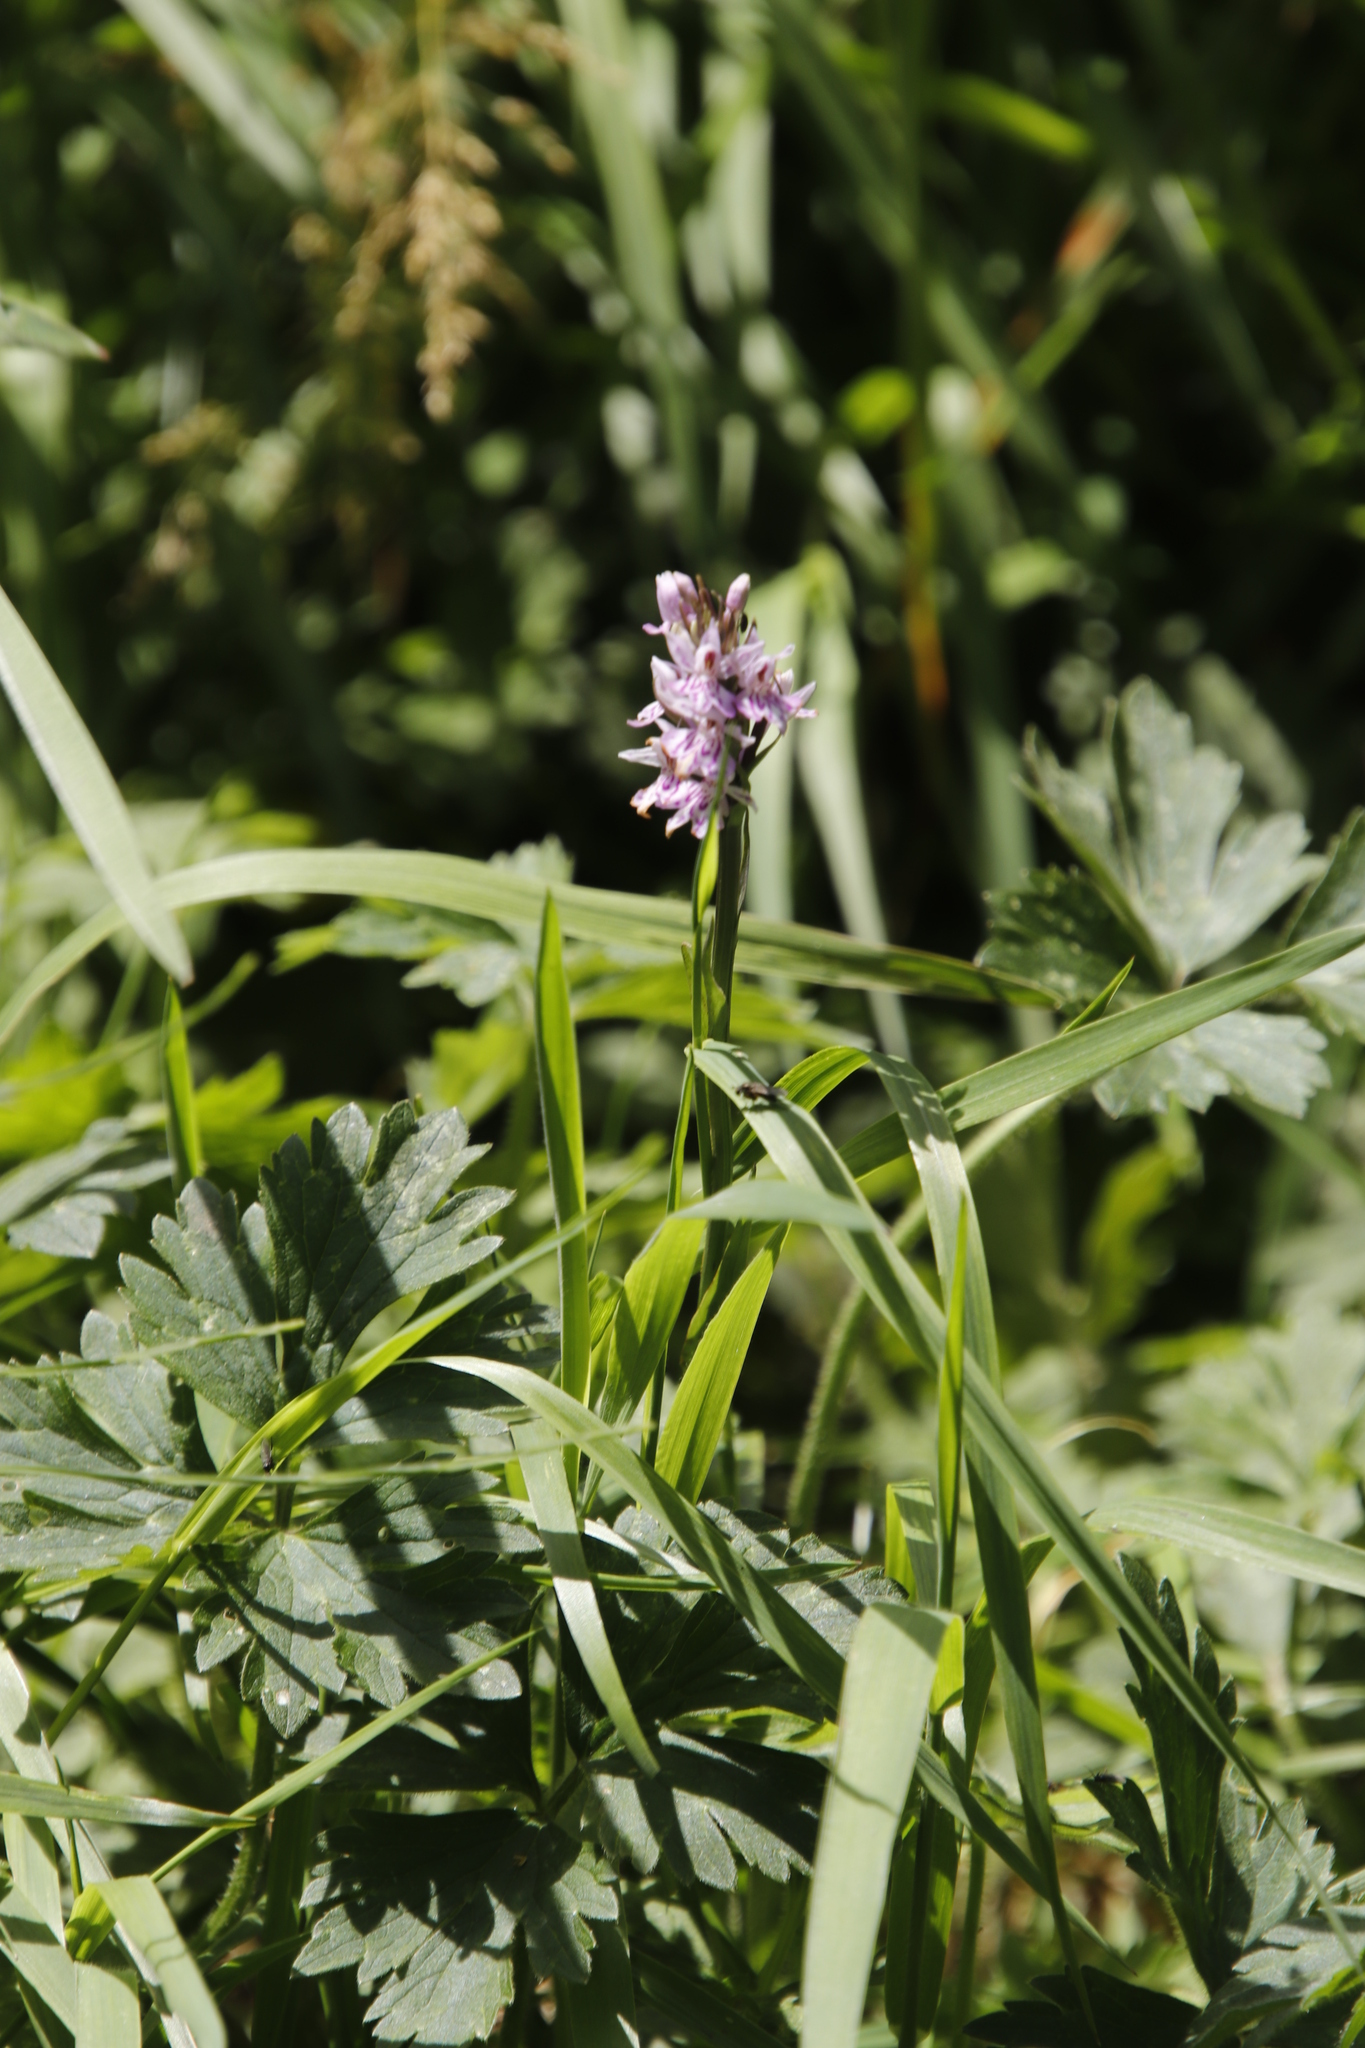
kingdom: Plantae
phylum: Tracheophyta
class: Liliopsida
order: Asparagales
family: Orchidaceae
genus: Dactylorhiza
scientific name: Dactylorhiza maculata
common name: Heath spotted-orchid
